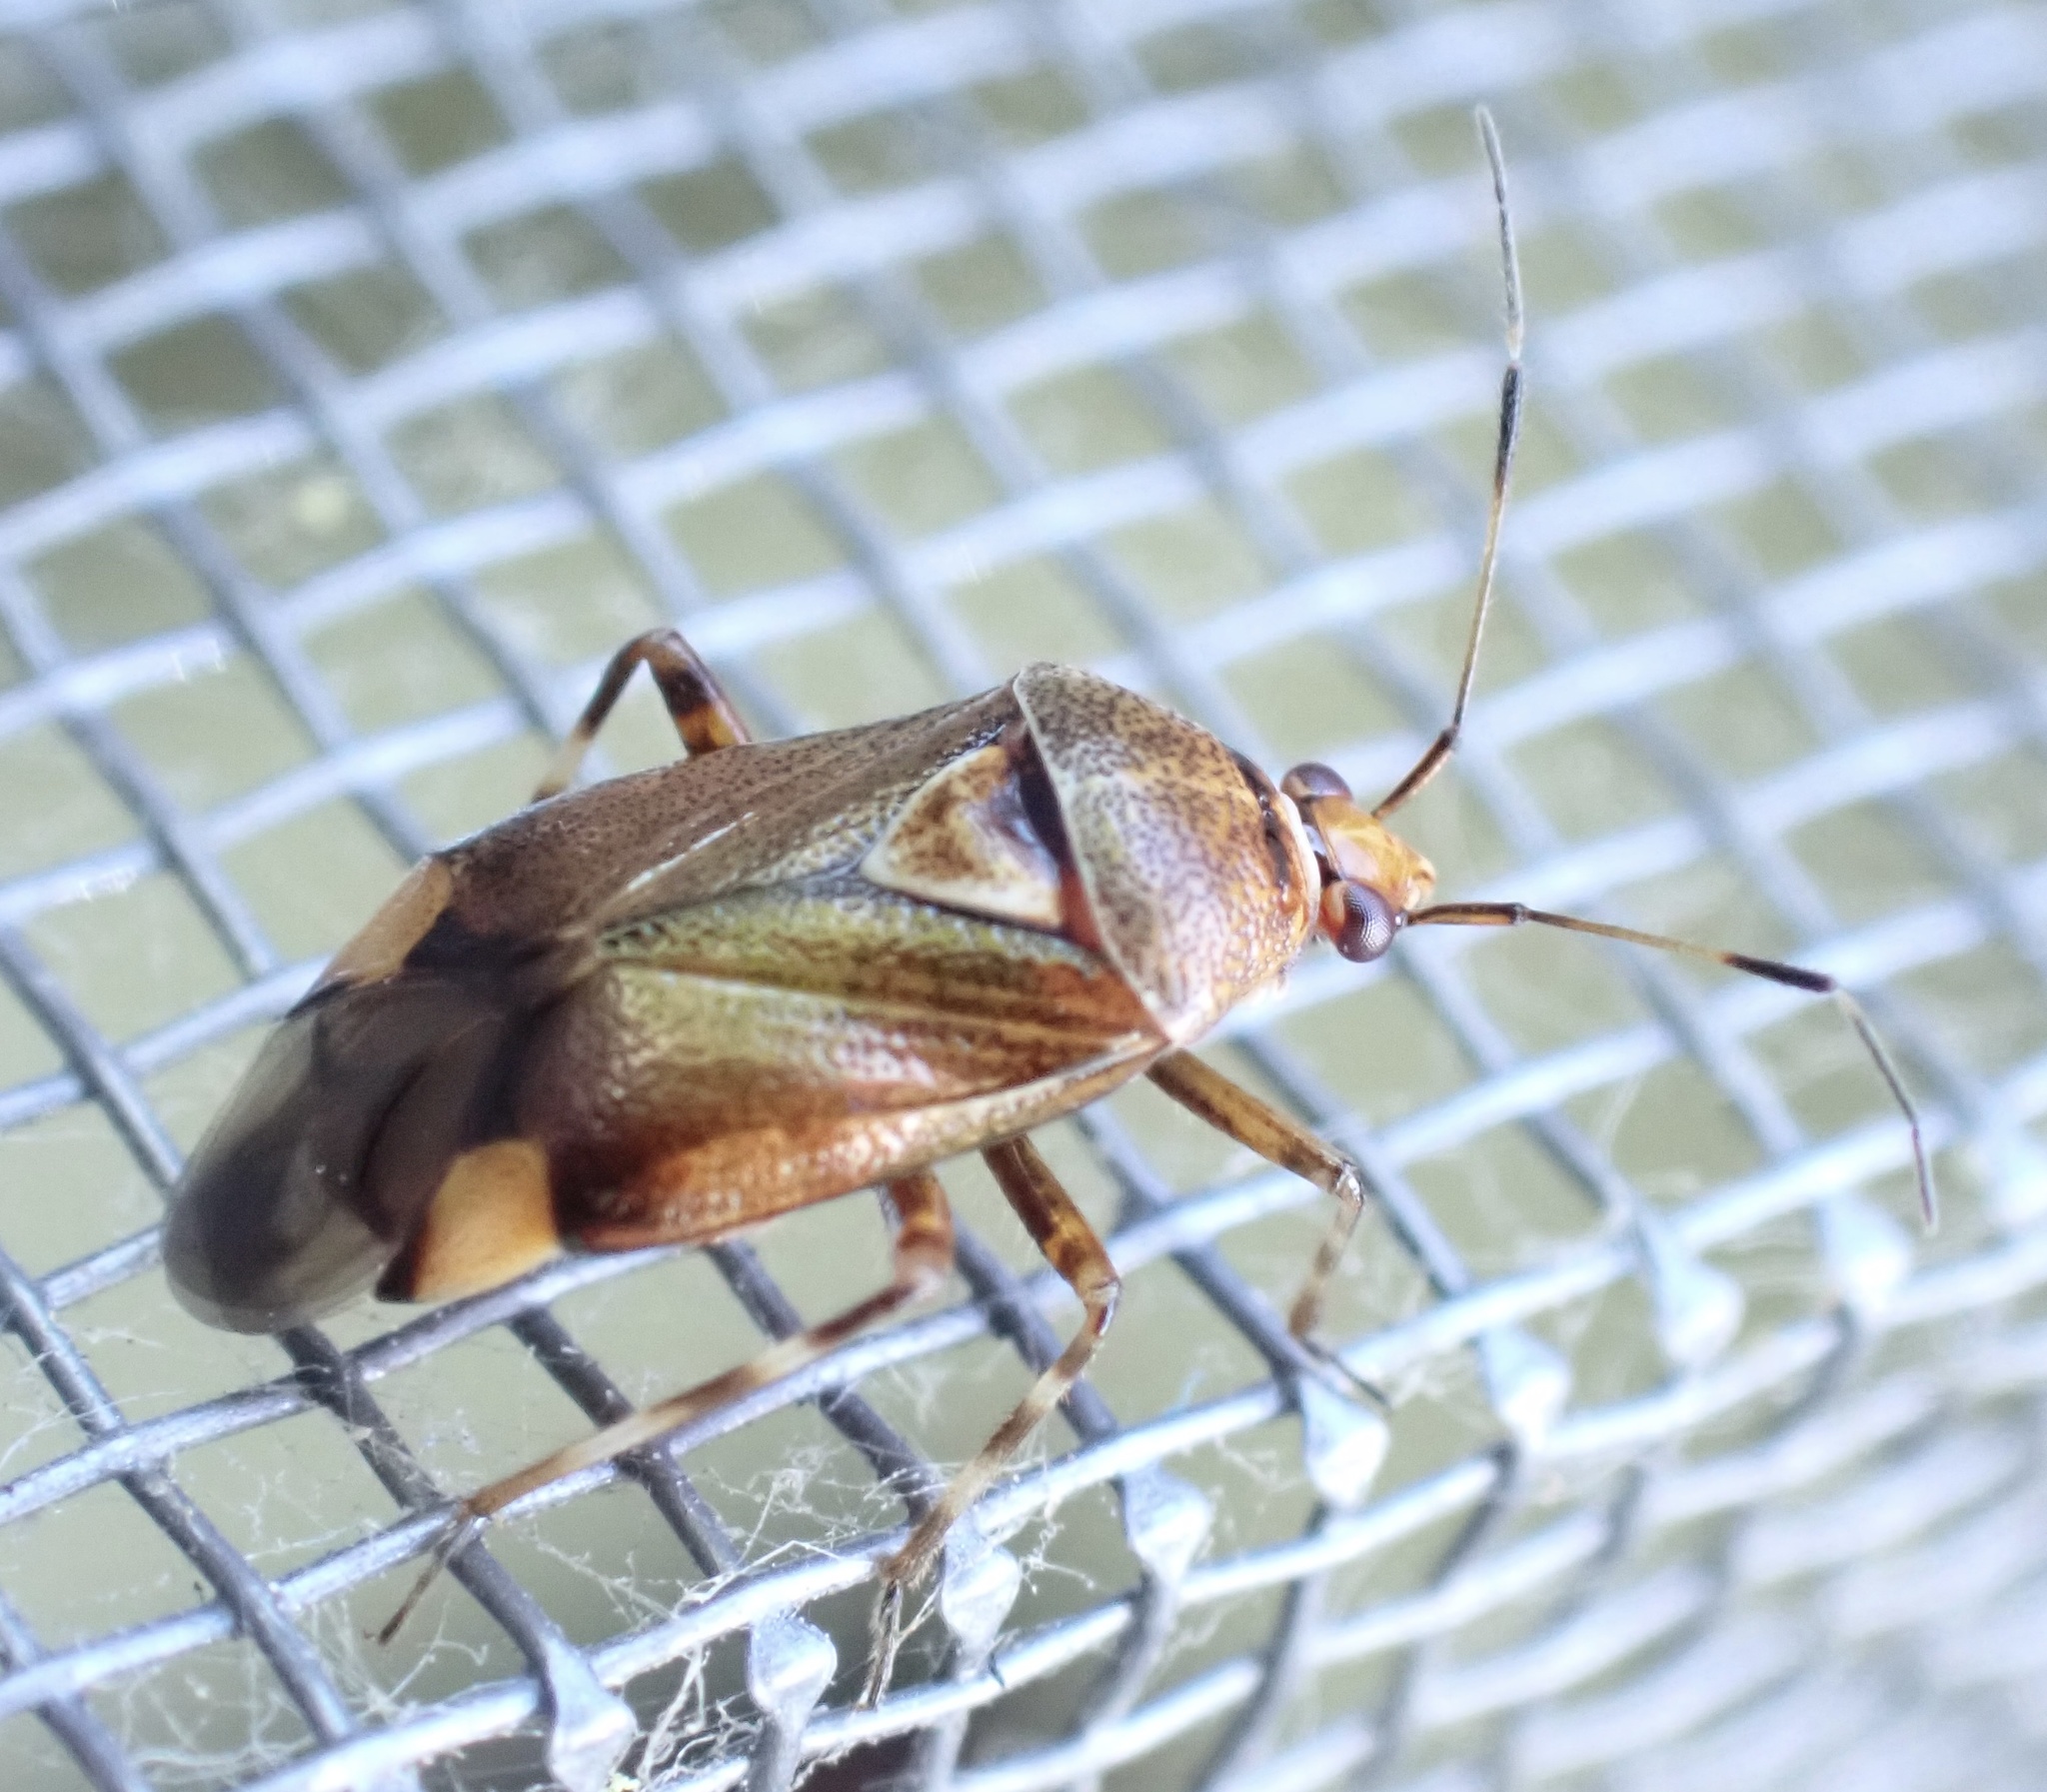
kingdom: Animalia
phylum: Arthropoda
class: Insecta
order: Hemiptera
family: Miridae
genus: Deraeocoris
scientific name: Deraeocoris flavilinea
